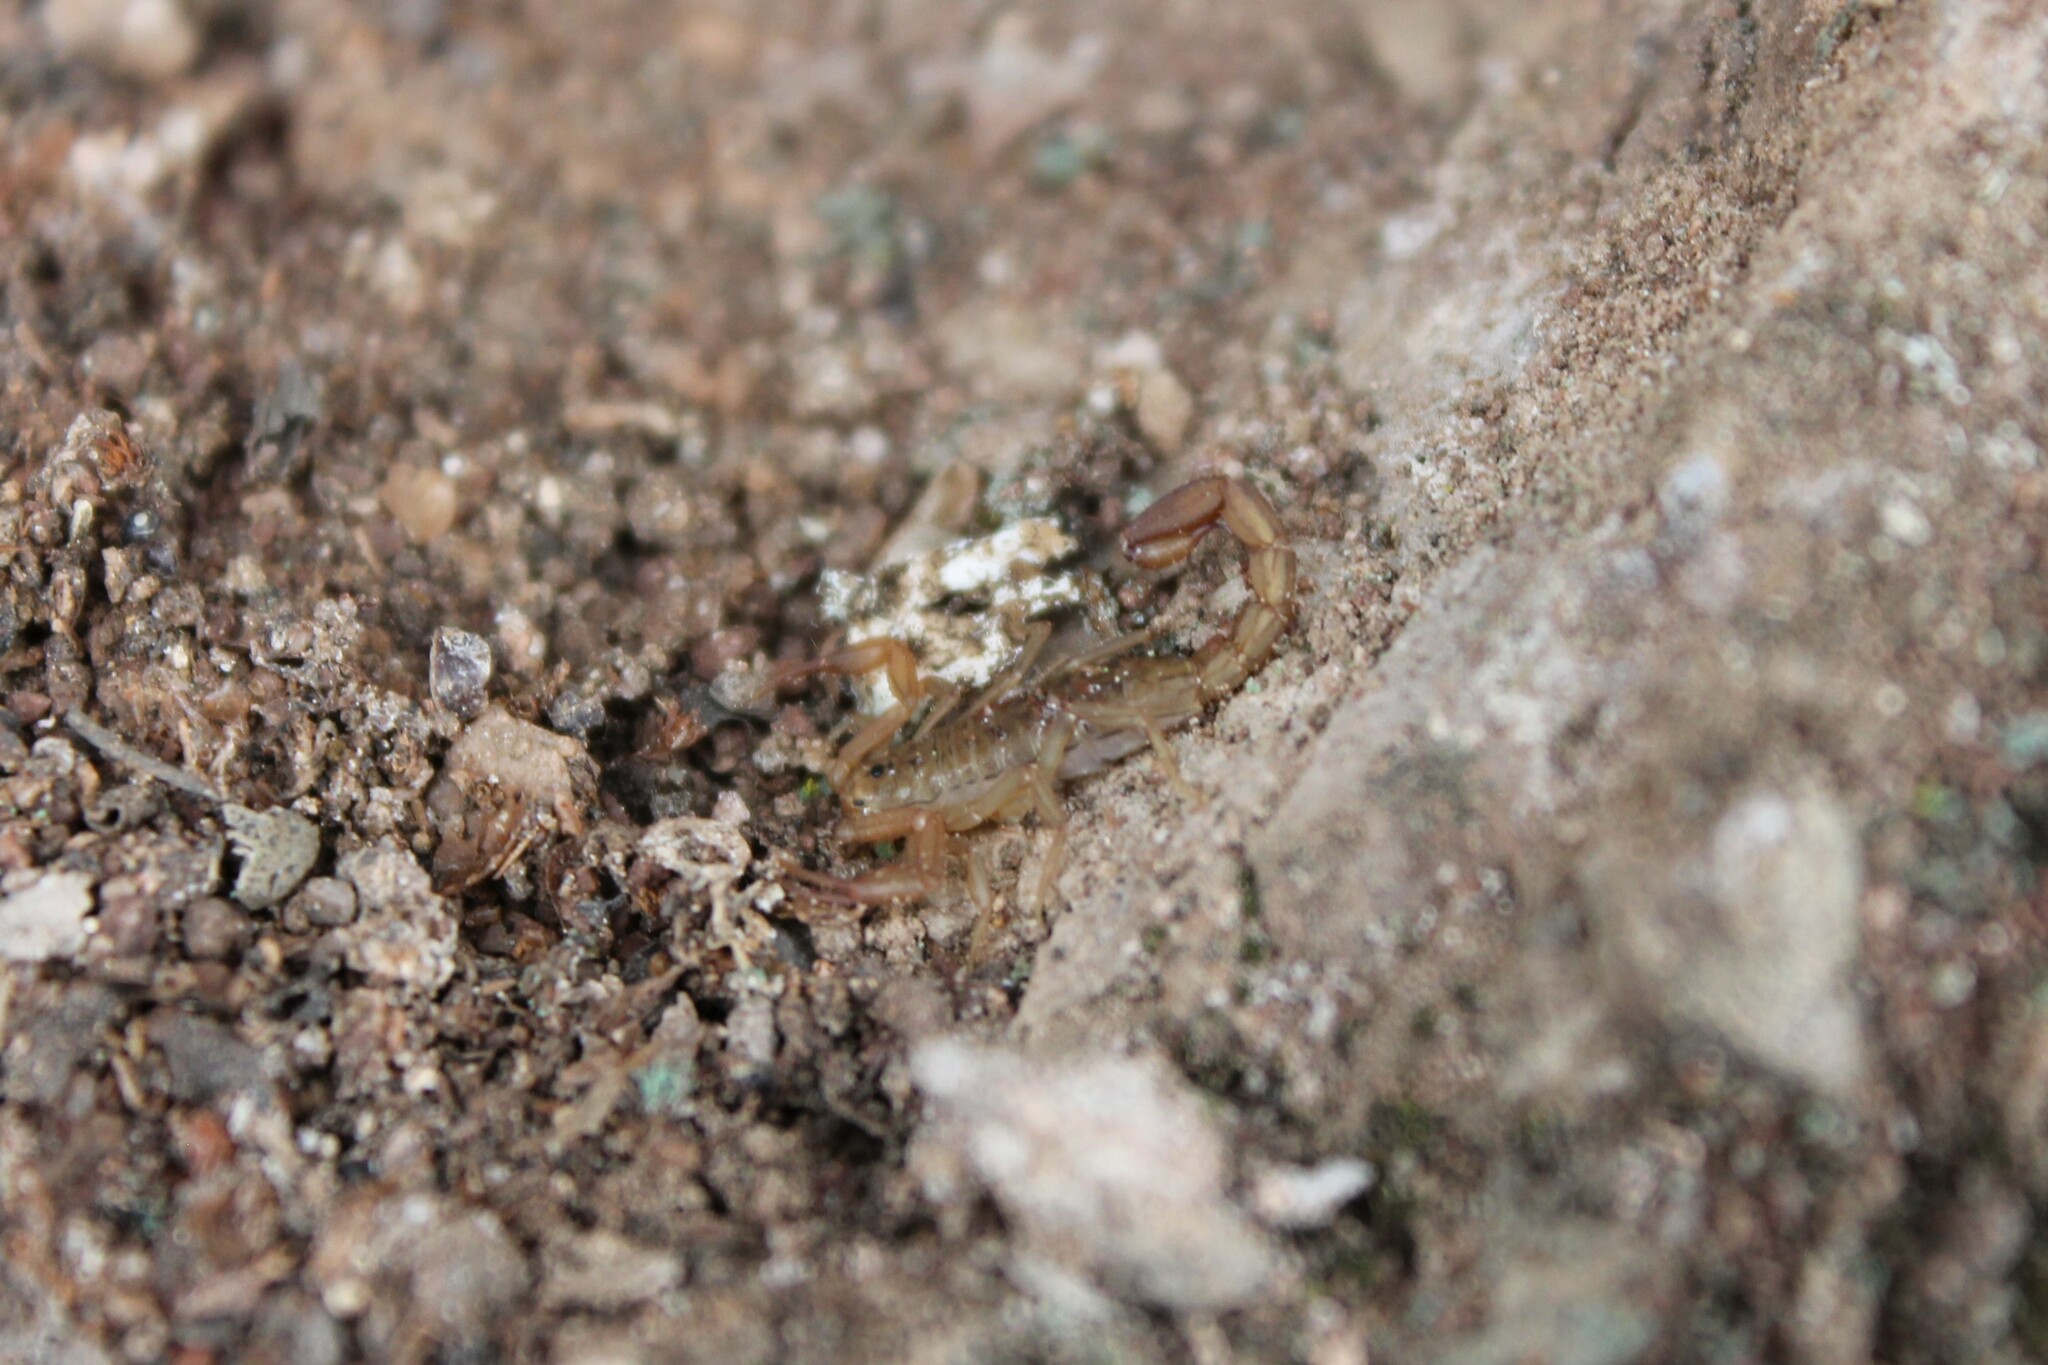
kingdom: Animalia
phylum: Arthropoda
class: Arachnida
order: Scorpiones
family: Vaejovidae
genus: Serradigitus
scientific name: Serradigitus gertschi
